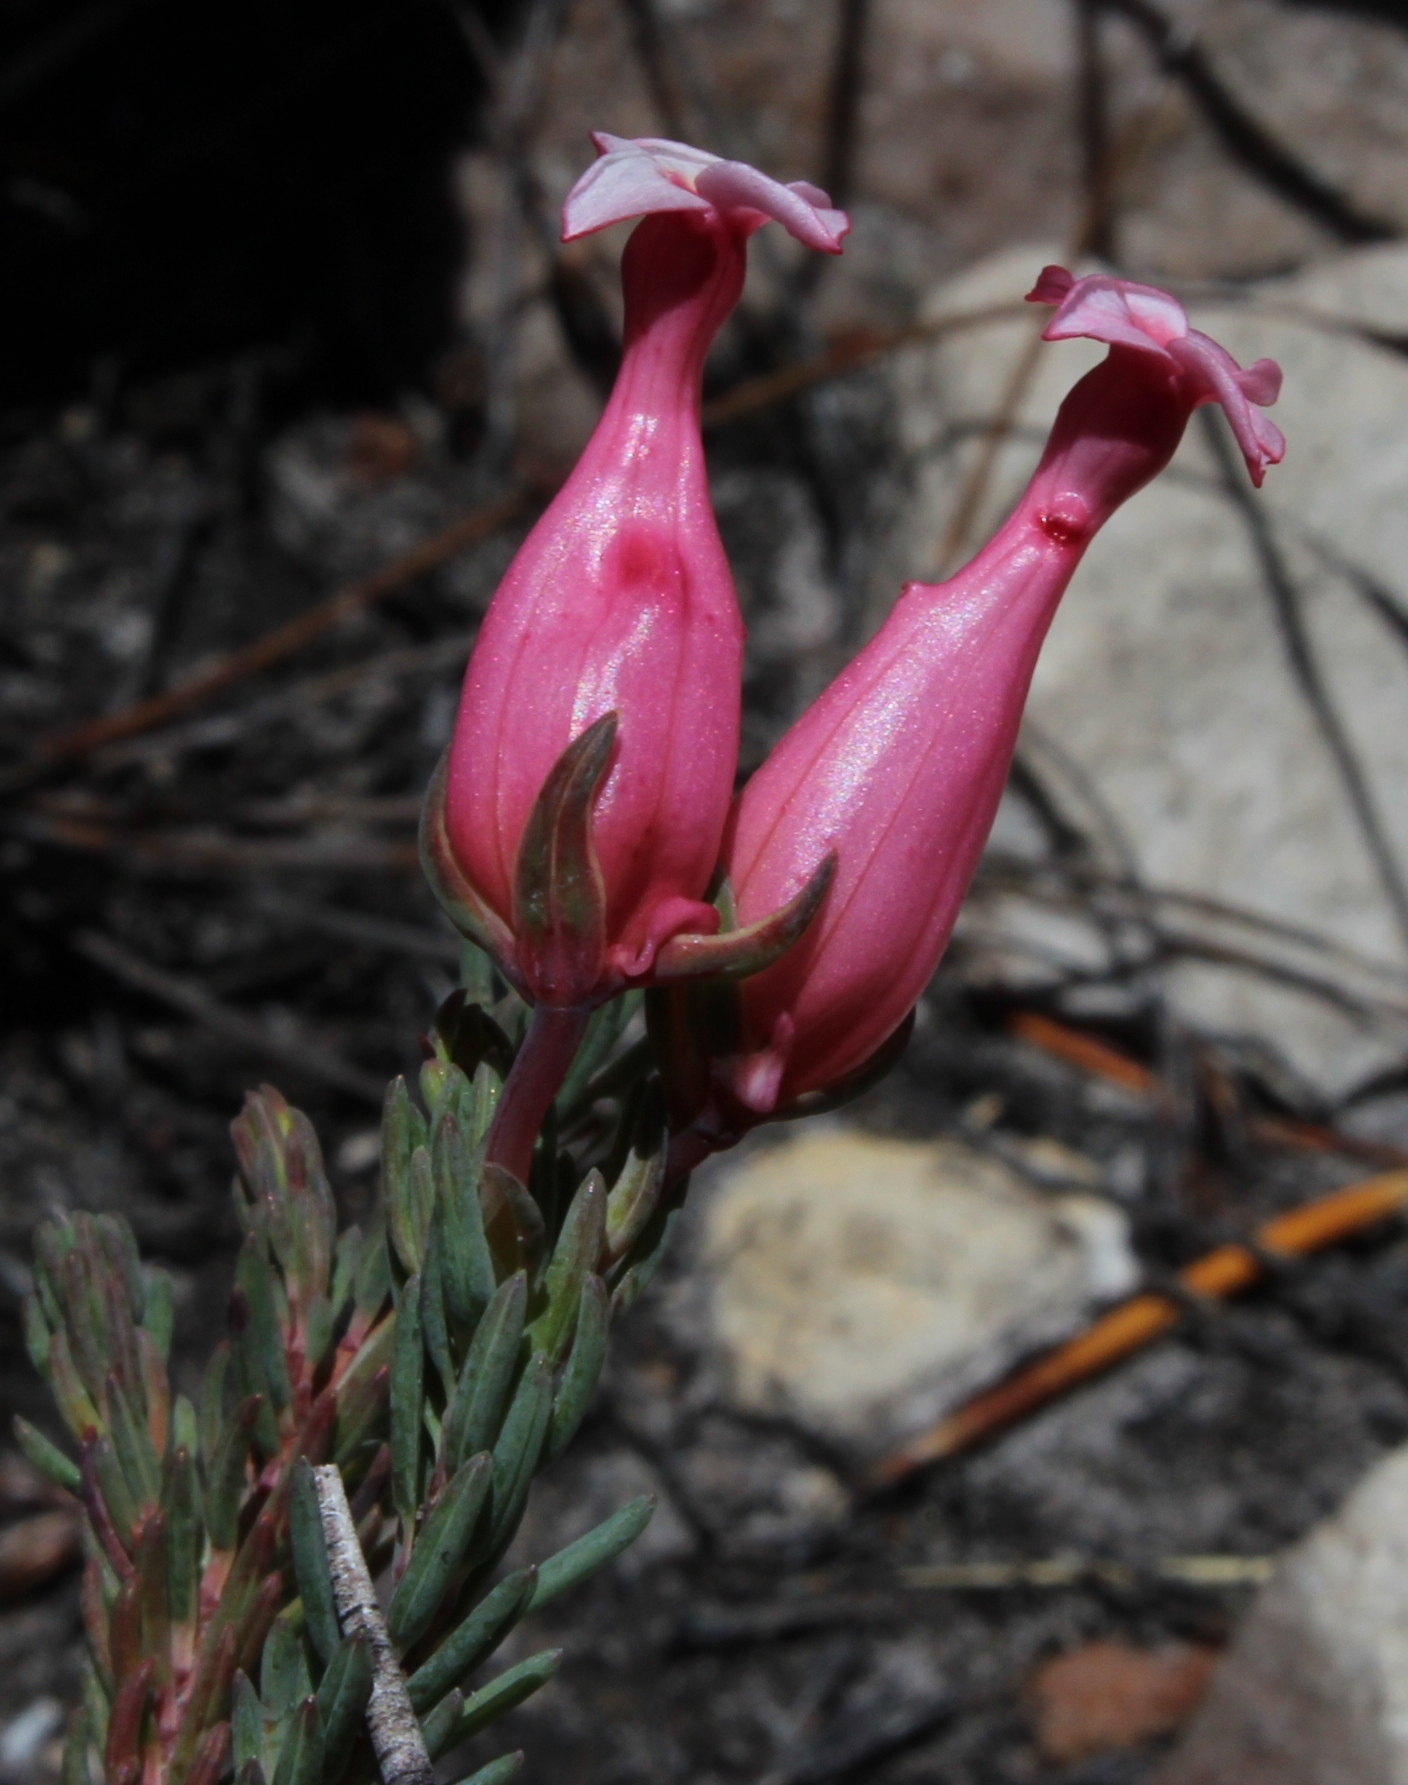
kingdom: Plantae
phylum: Tracheophyta
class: Magnoliopsida
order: Ericales
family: Ericaceae
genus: Erica
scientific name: Erica junonia
